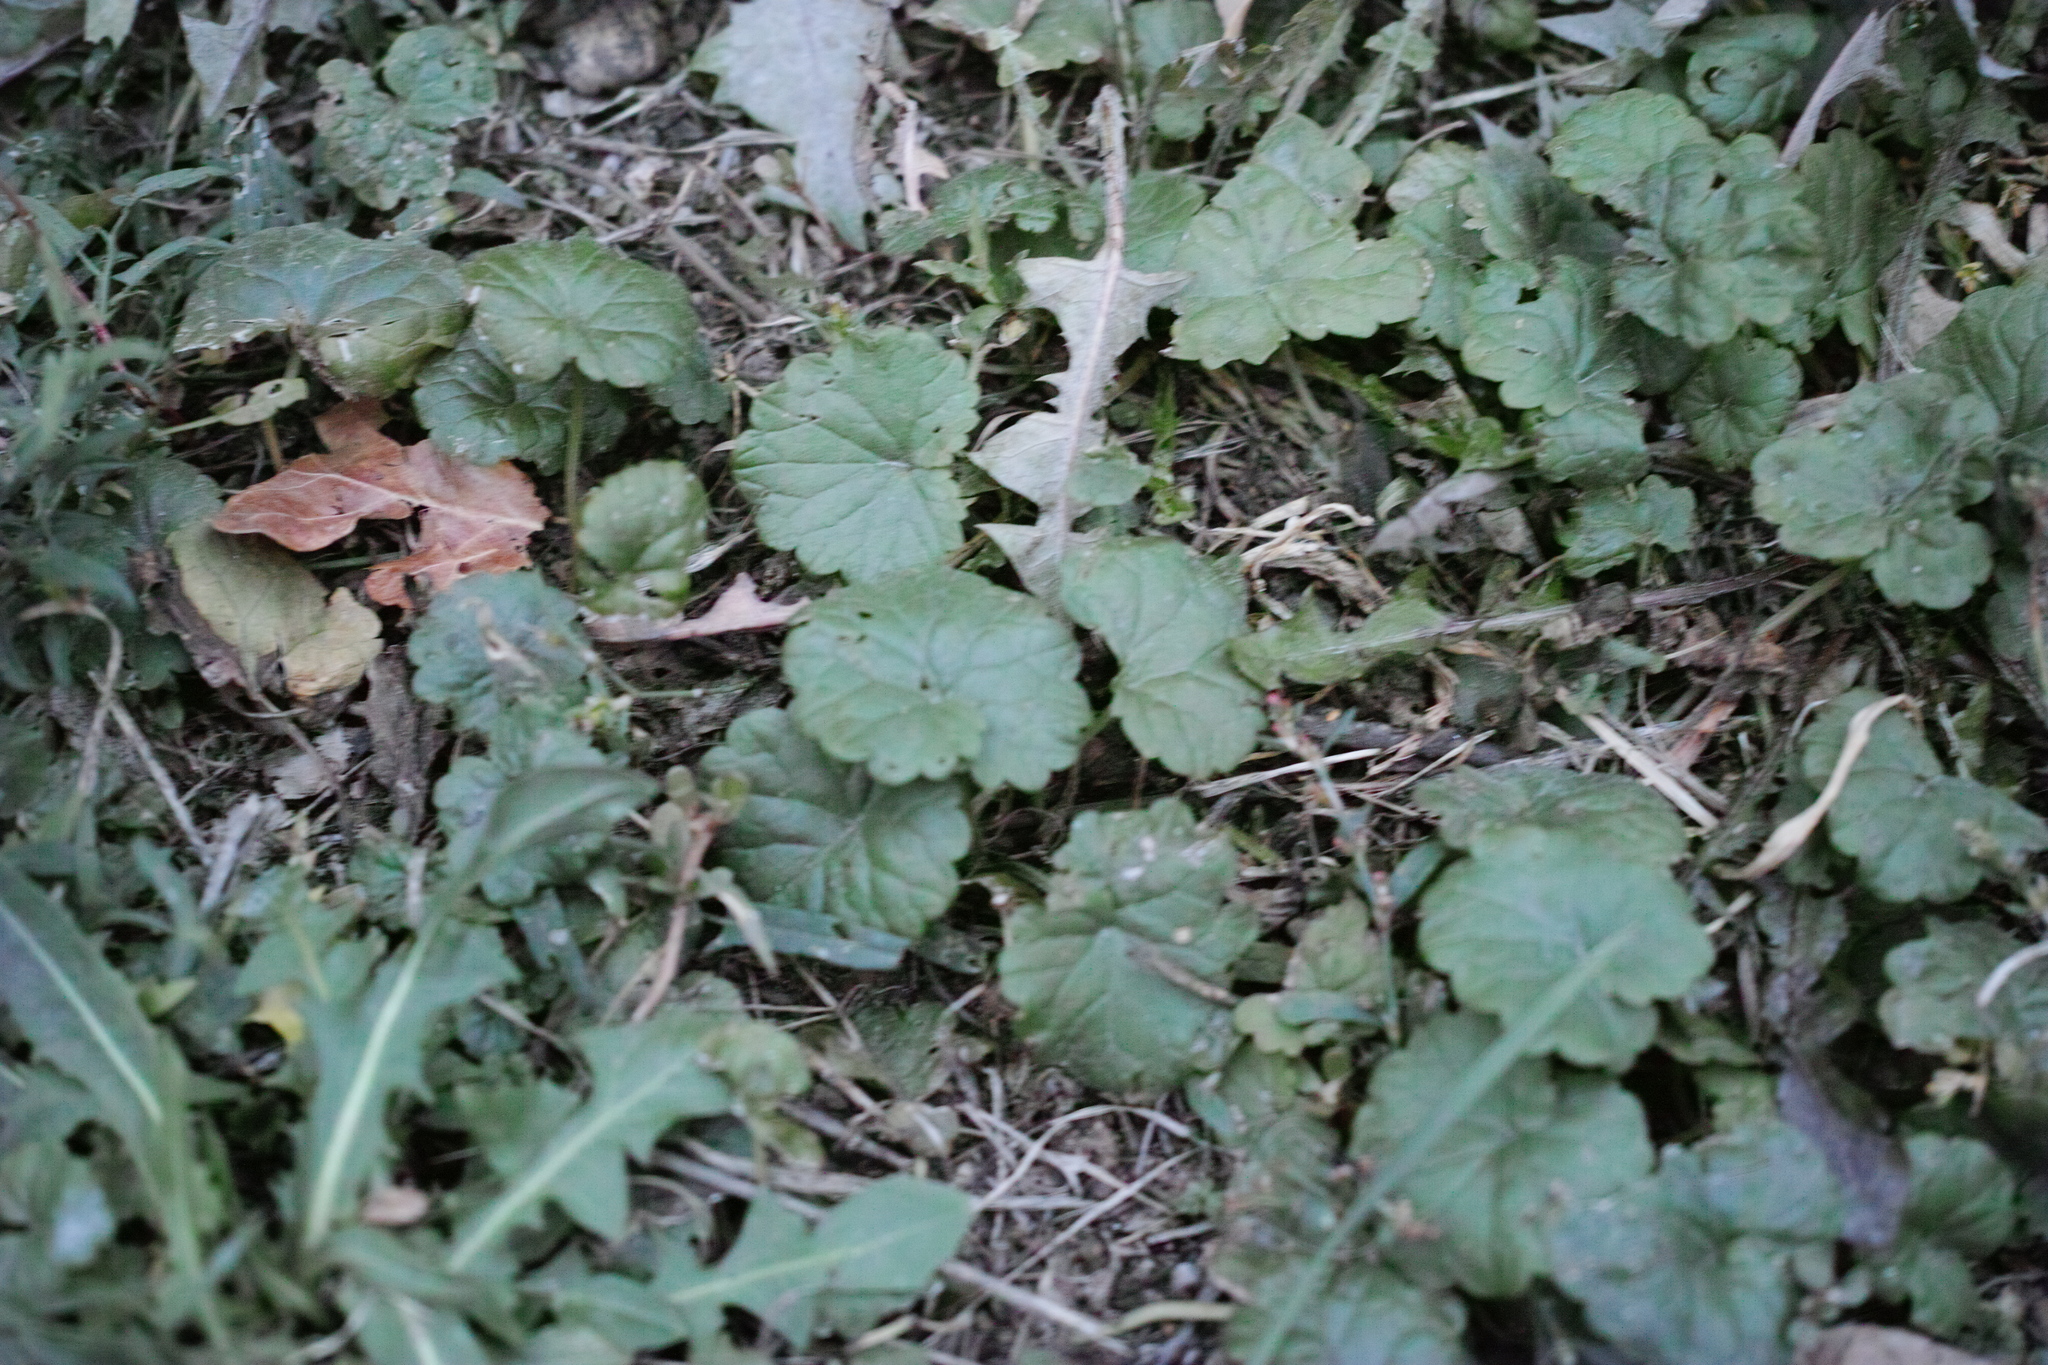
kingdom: Plantae
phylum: Tracheophyta
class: Magnoliopsida
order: Lamiales
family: Lamiaceae
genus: Glechoma
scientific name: Glechoma hederacea
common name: Ground ivy
